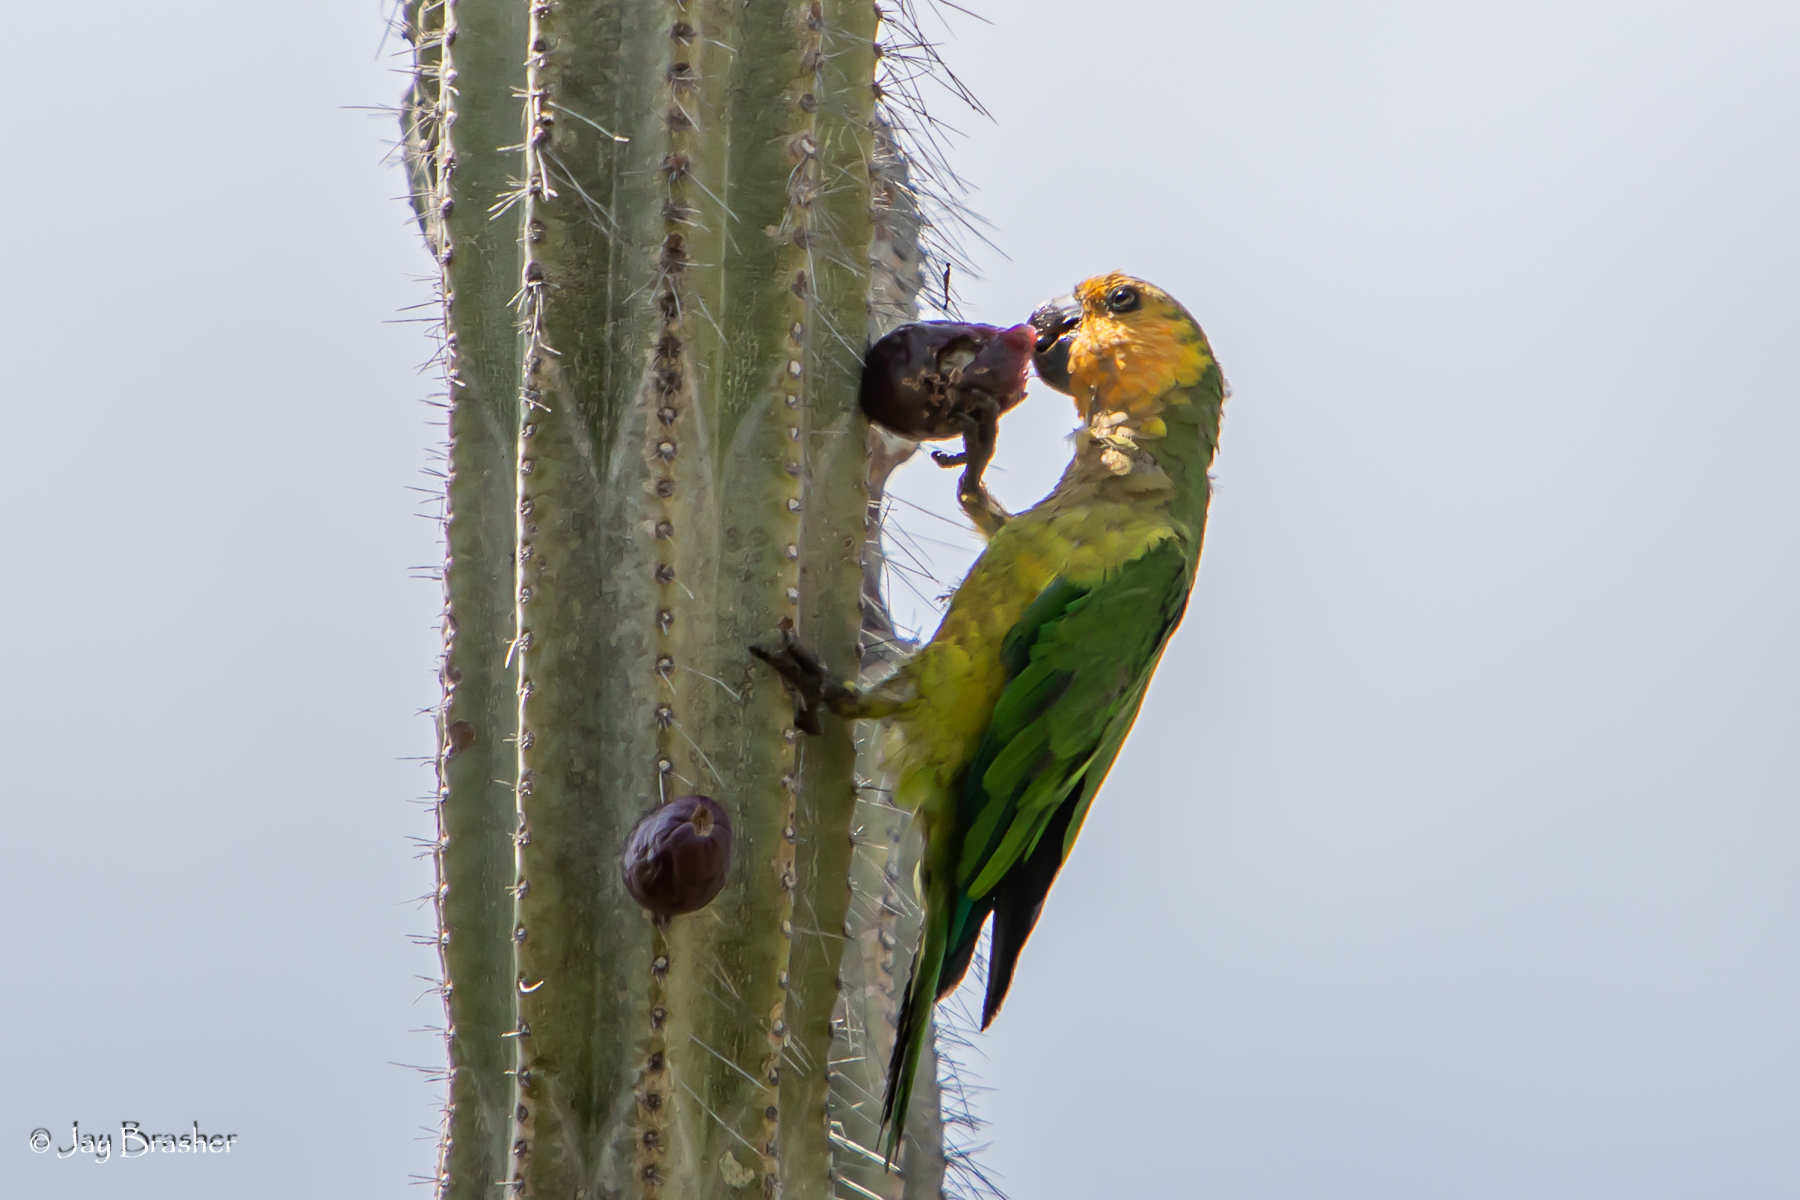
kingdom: Animalia
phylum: Chordata
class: Aves
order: Psittaciformes
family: Psittacidae
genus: Aratinga
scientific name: Aratinga pertinax
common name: Brown-throated parakeet
